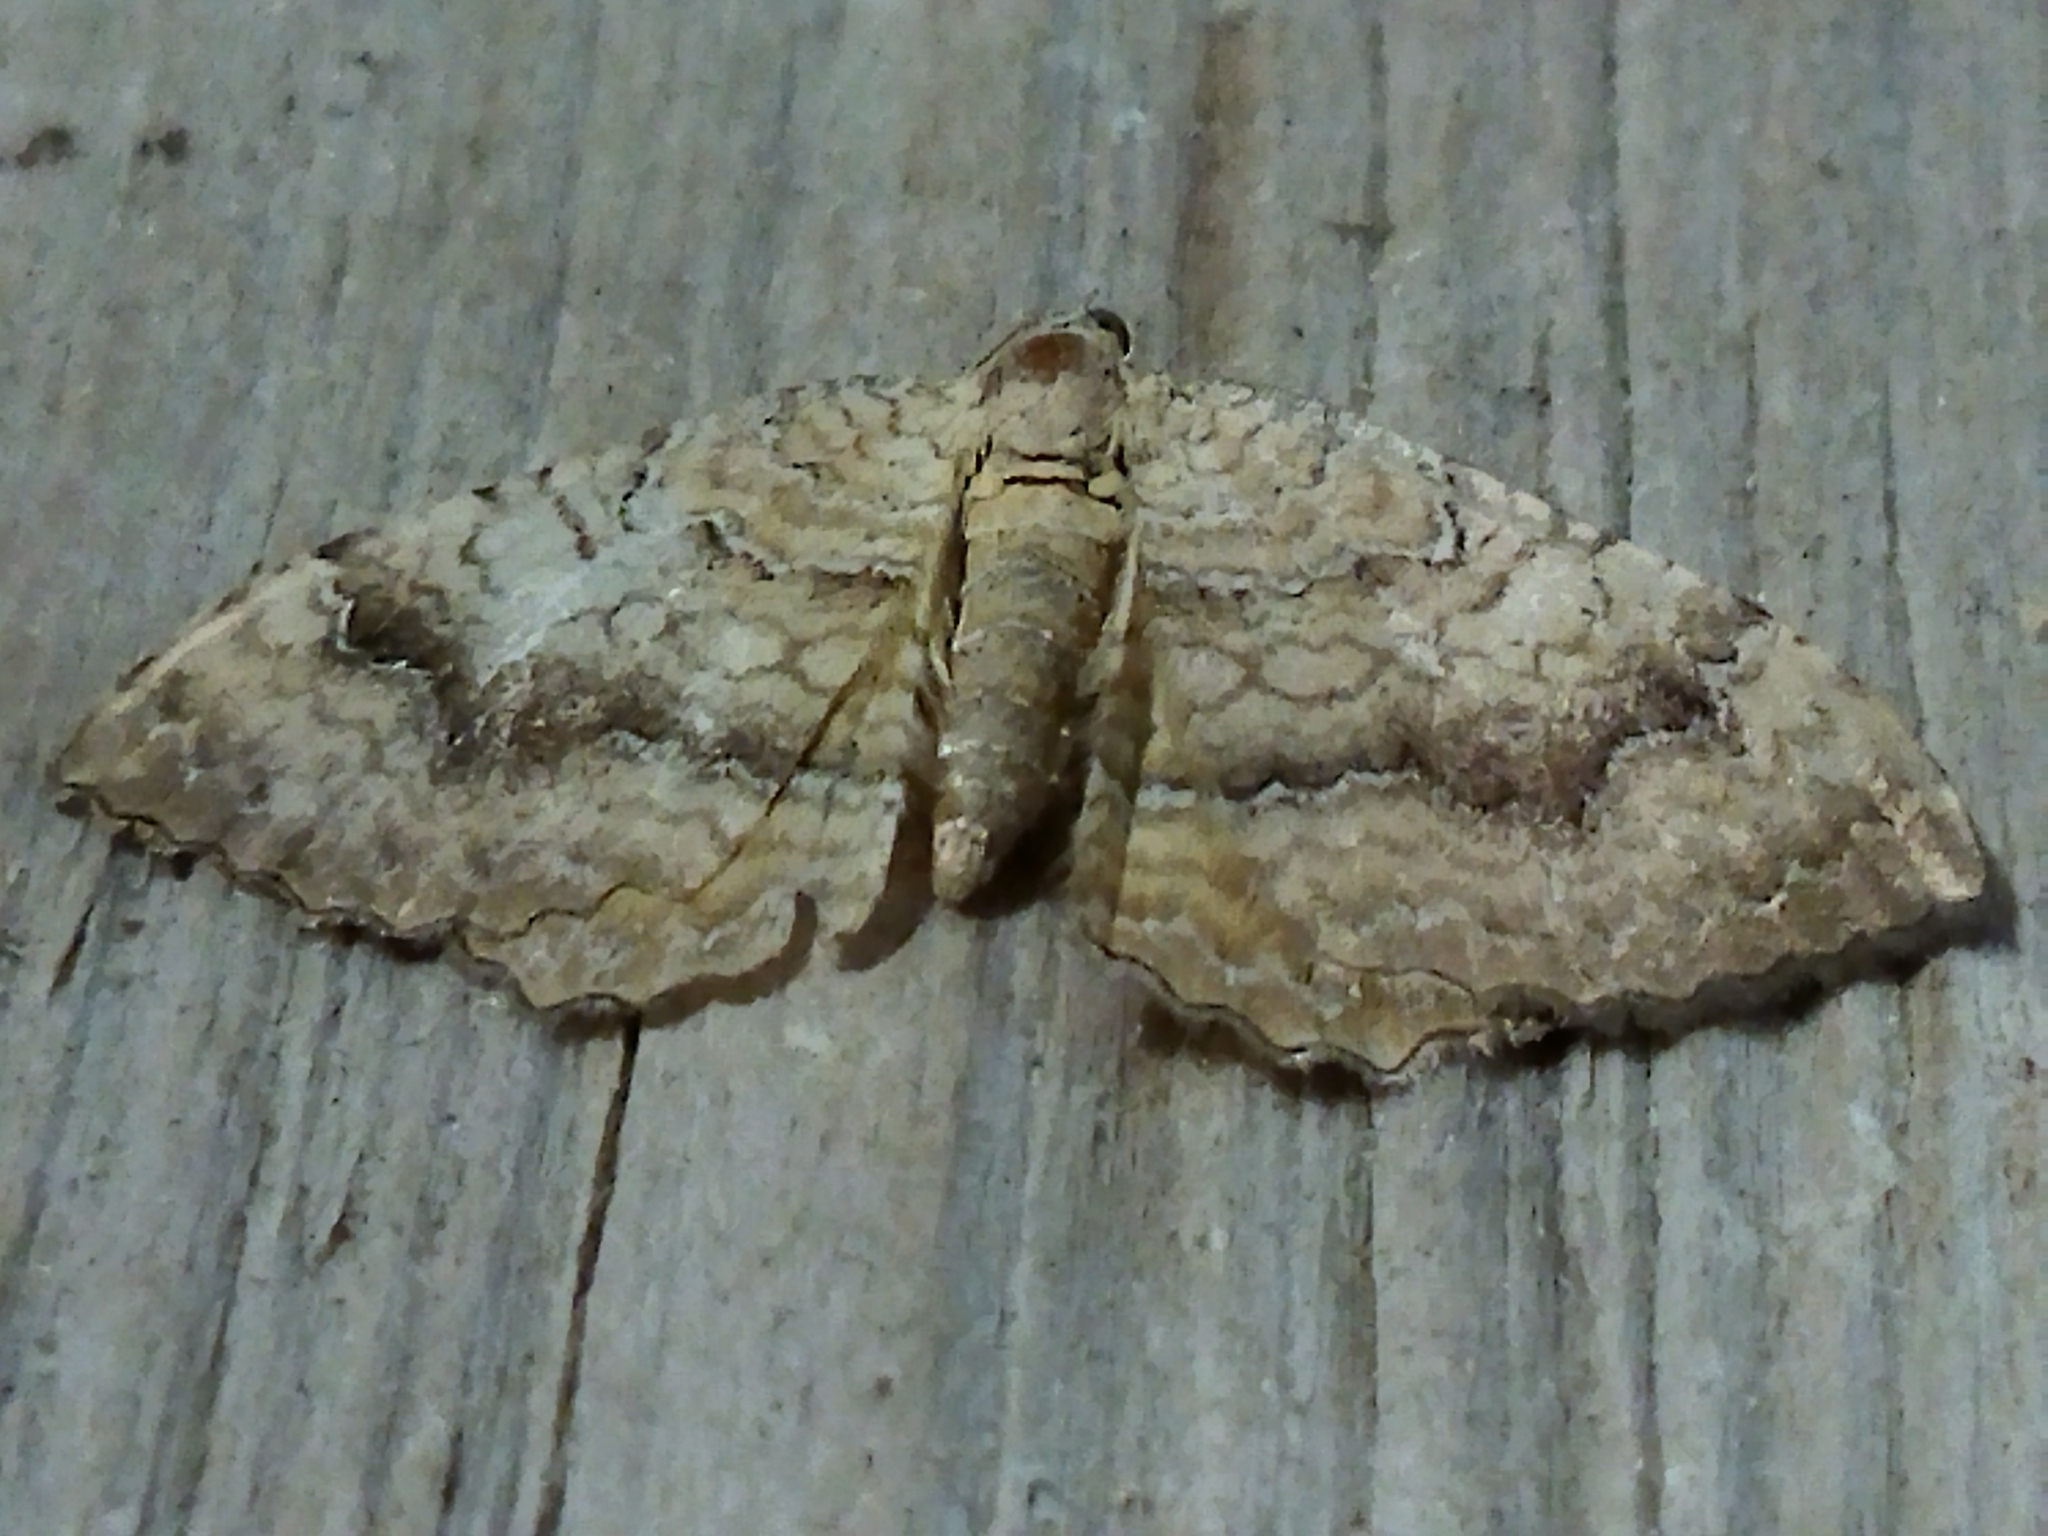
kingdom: Animalia
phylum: Arthropoda
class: Insecta
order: Lepidoptera
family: Geometridae
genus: Camptogramma
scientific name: Camptogramma bilineata
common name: Yellow shell
